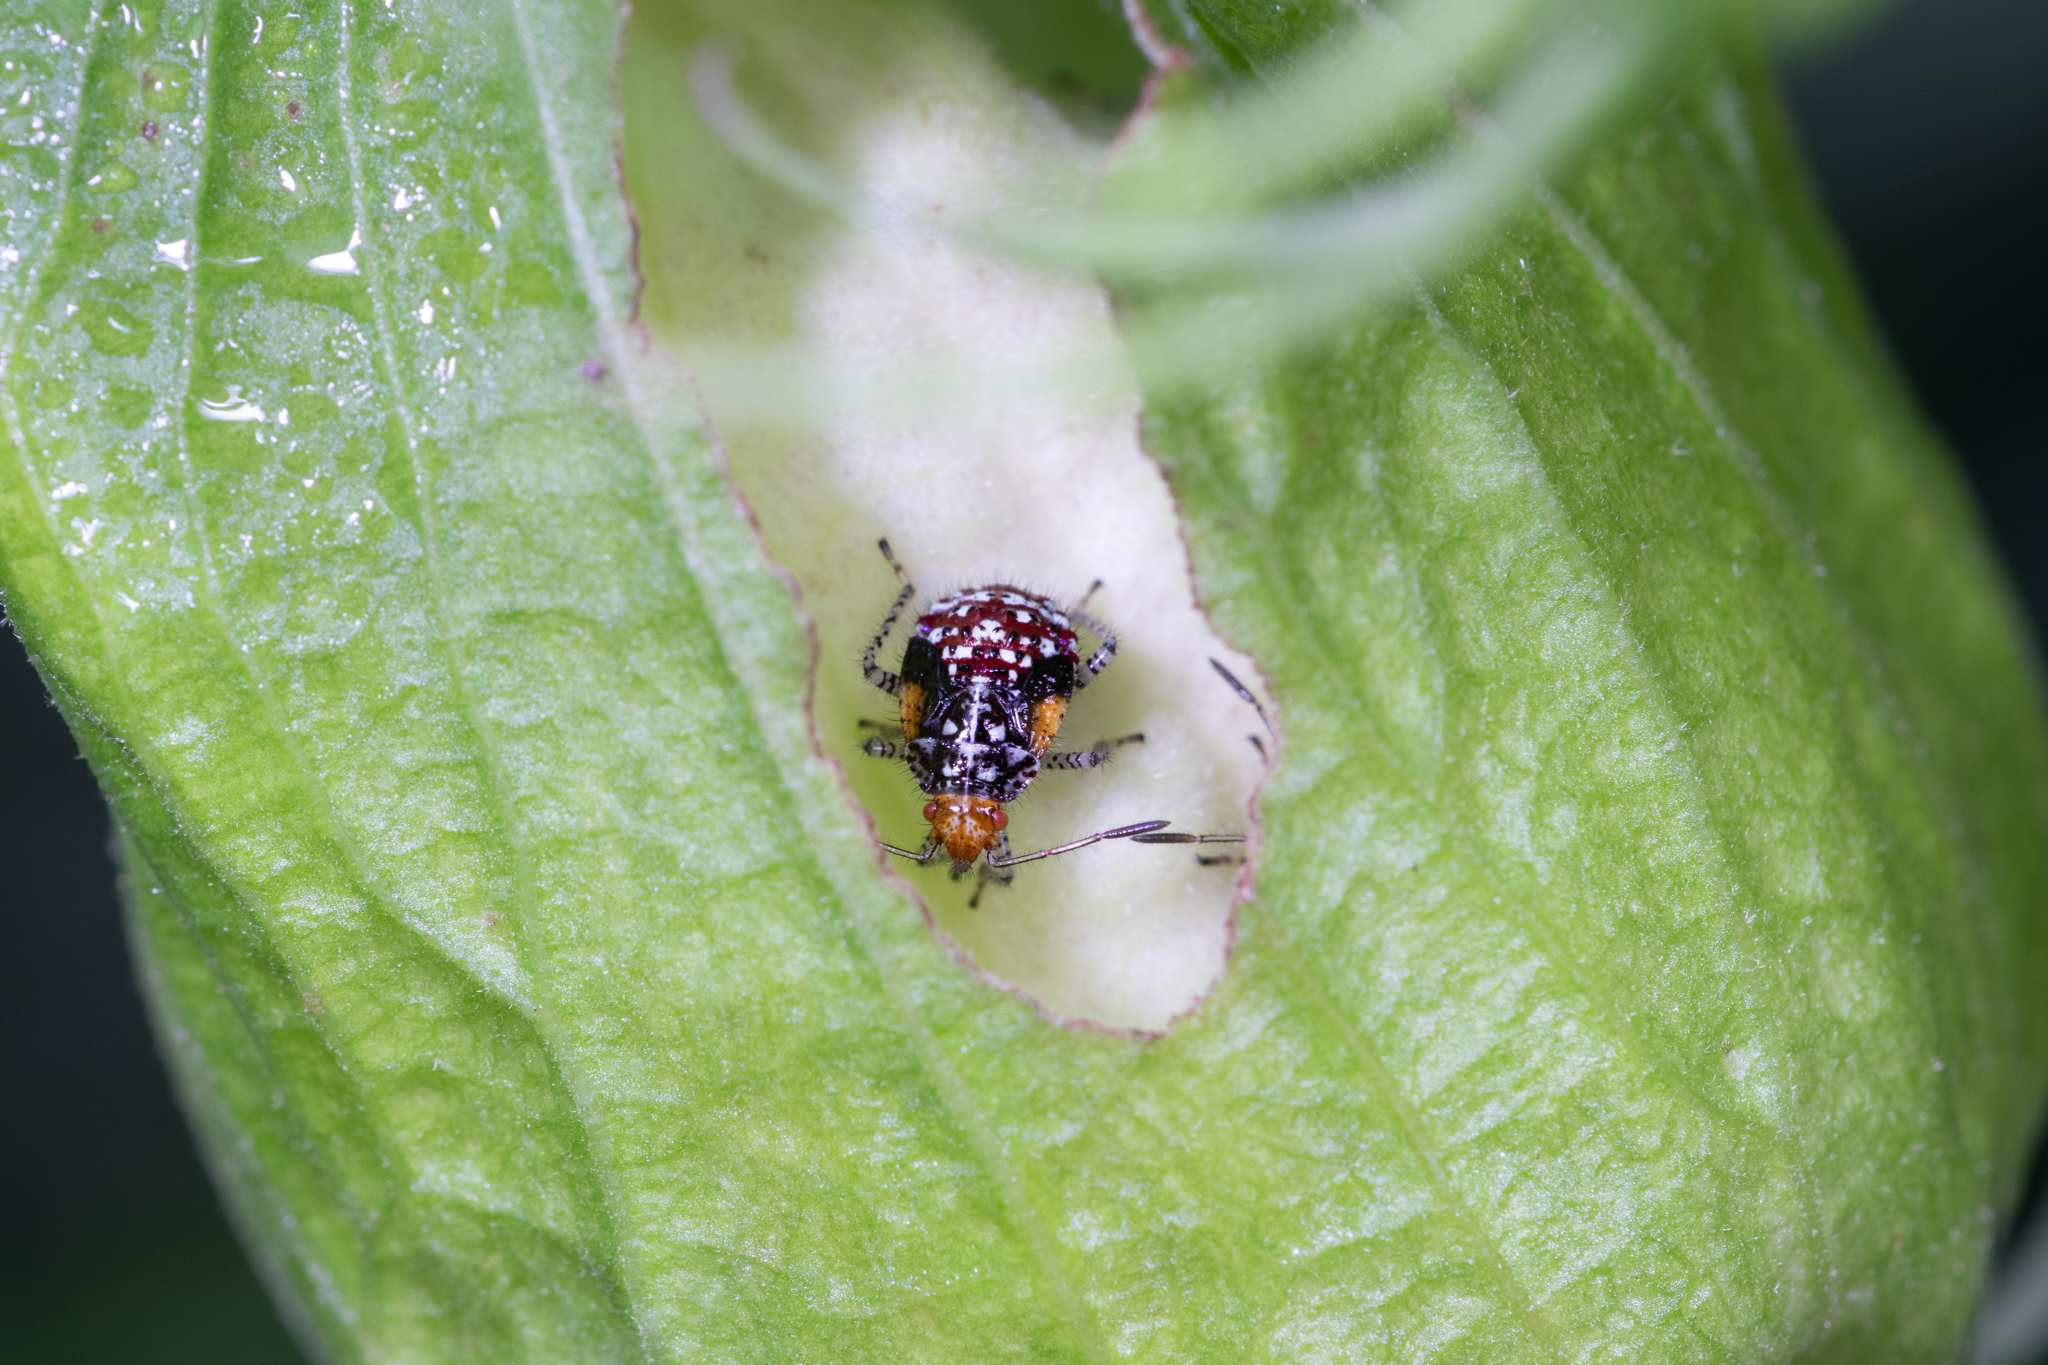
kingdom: Animalia
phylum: Arthropoda
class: Insecta
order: Hemiptera
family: Rhopalidae
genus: Niesthrea
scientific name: Niesthrea louisianica
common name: Scentless plant bug
